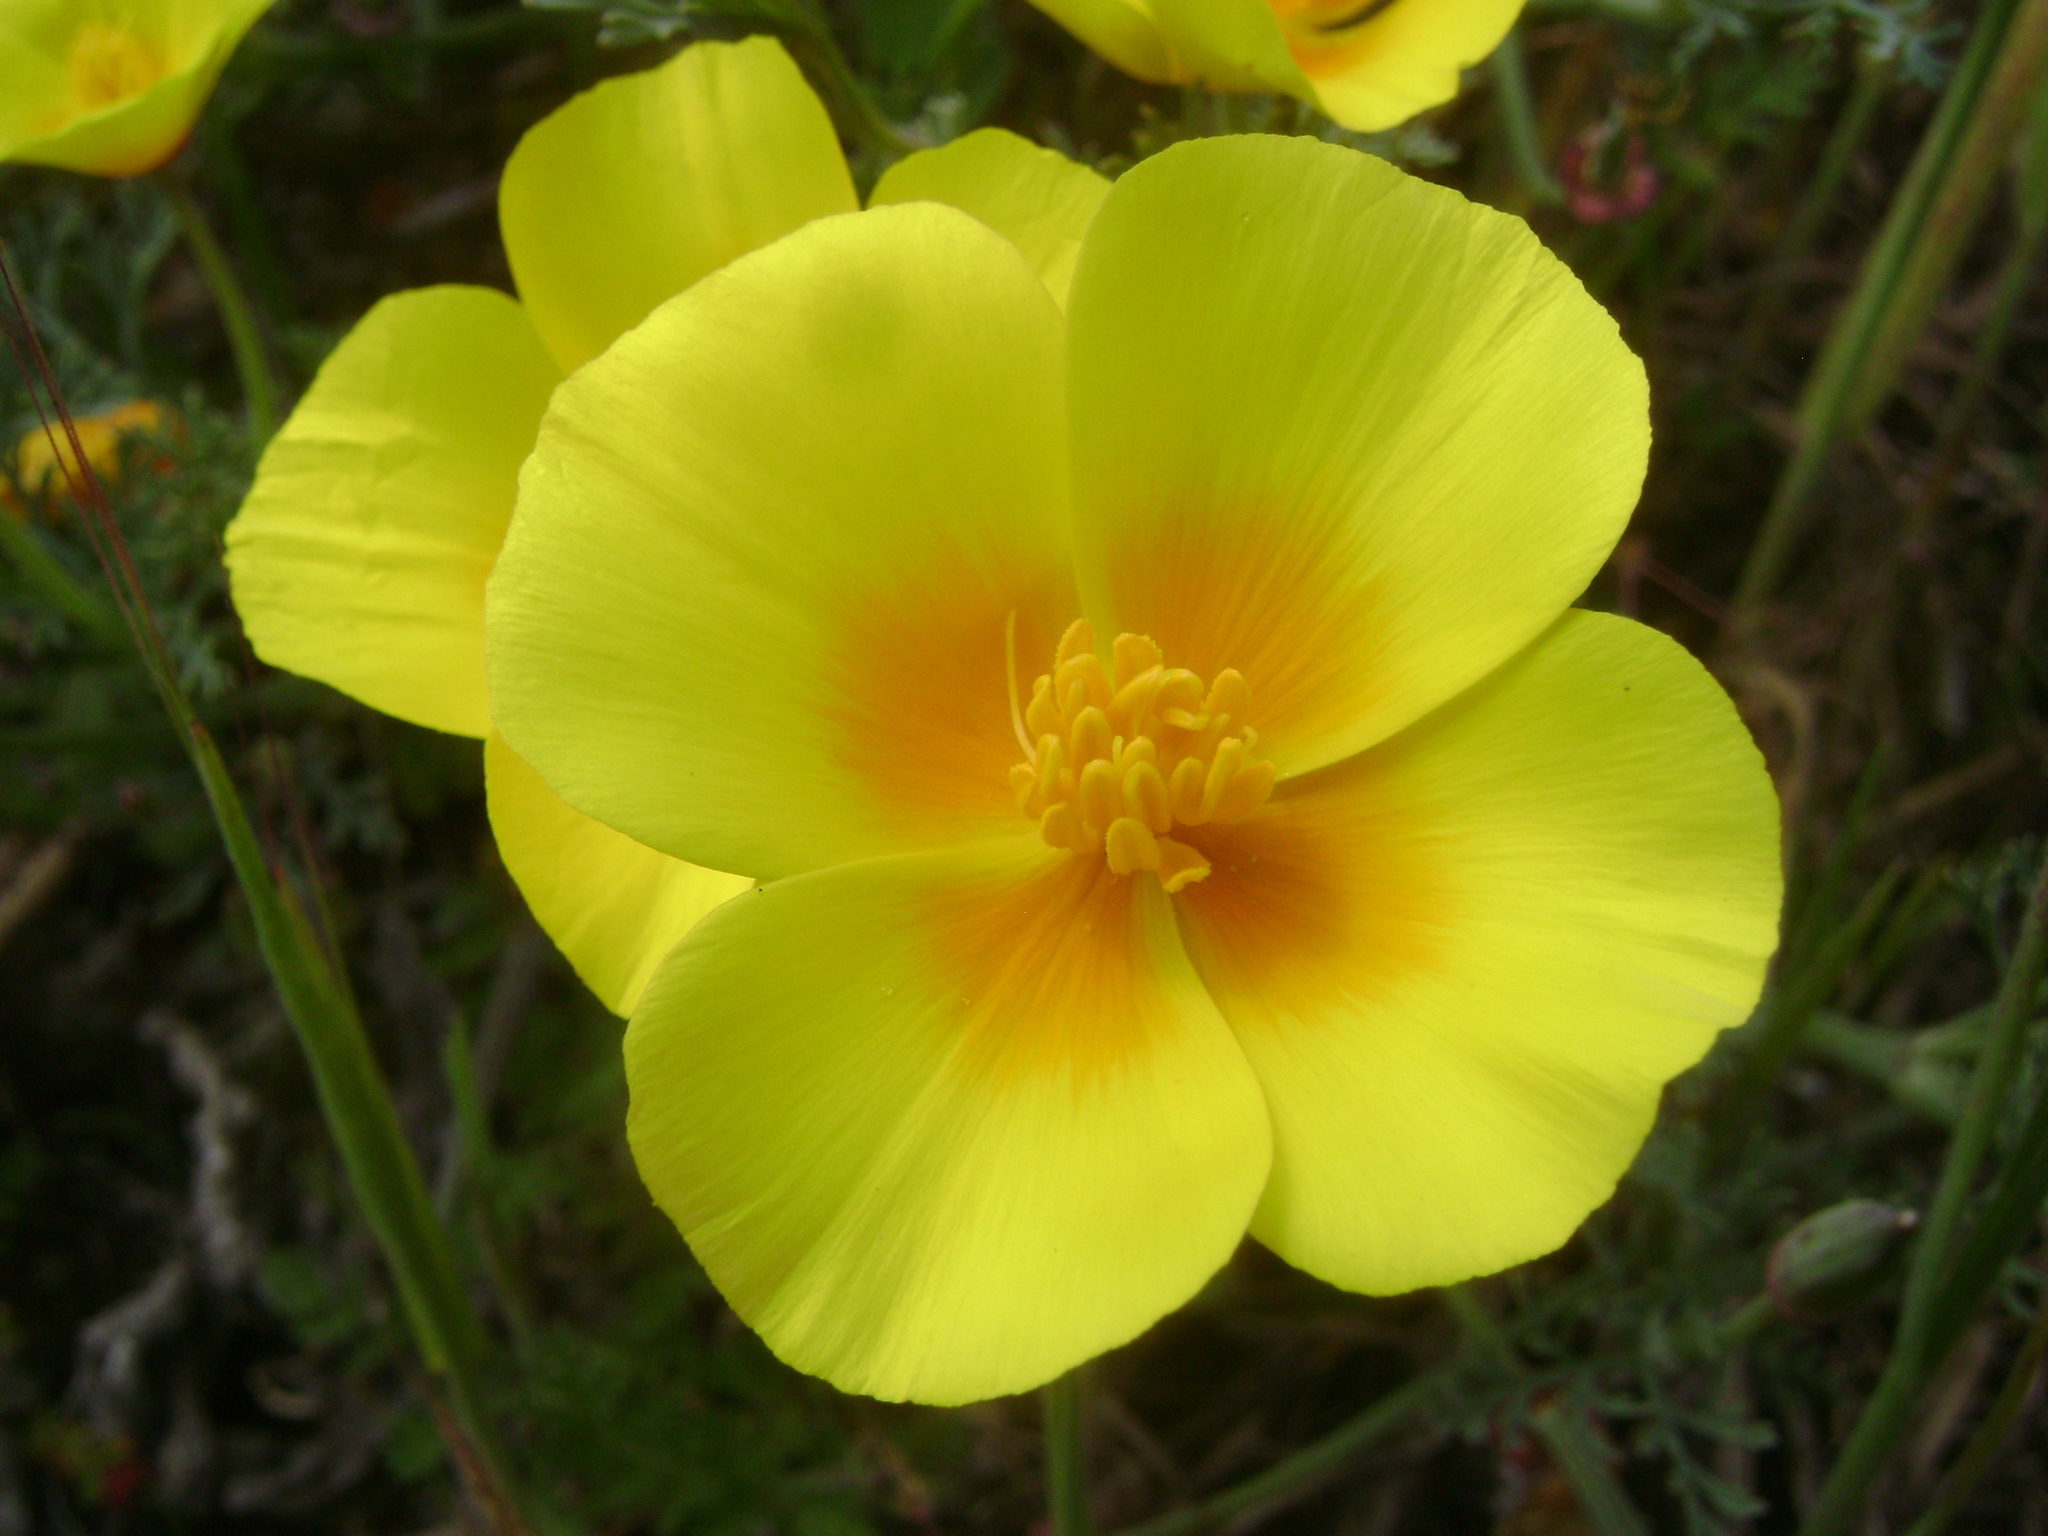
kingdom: Plantae
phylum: Tracheophyta
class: Magnoliopsida
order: Ranunculales
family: Papaveraceae
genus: Eschscholzia
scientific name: Eschscholzia californica
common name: California poppy
